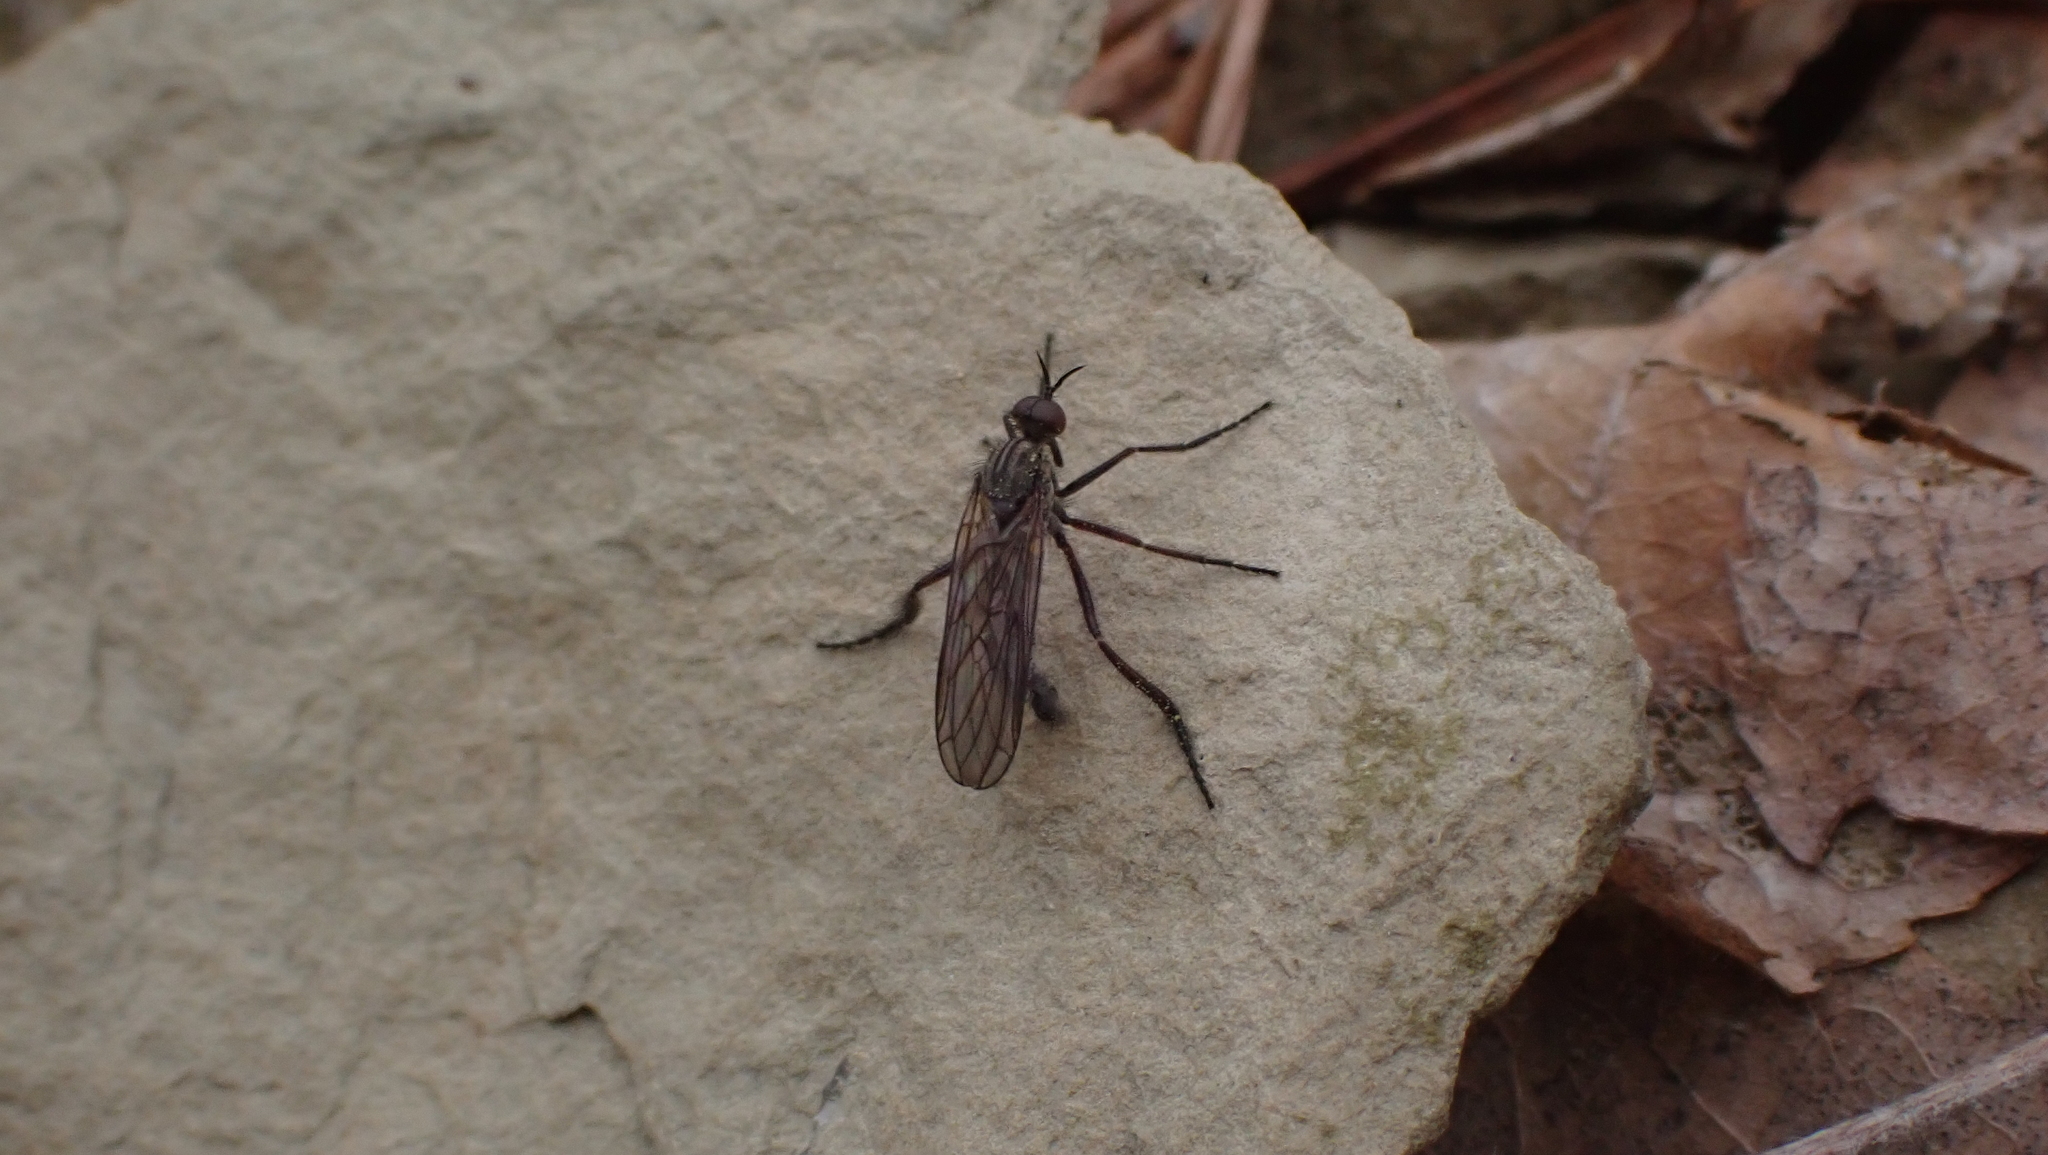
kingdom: Animalia
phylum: Arthropoda
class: Insecta
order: Diptera
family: Empididae
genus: Empis
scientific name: Empis spectabilis
